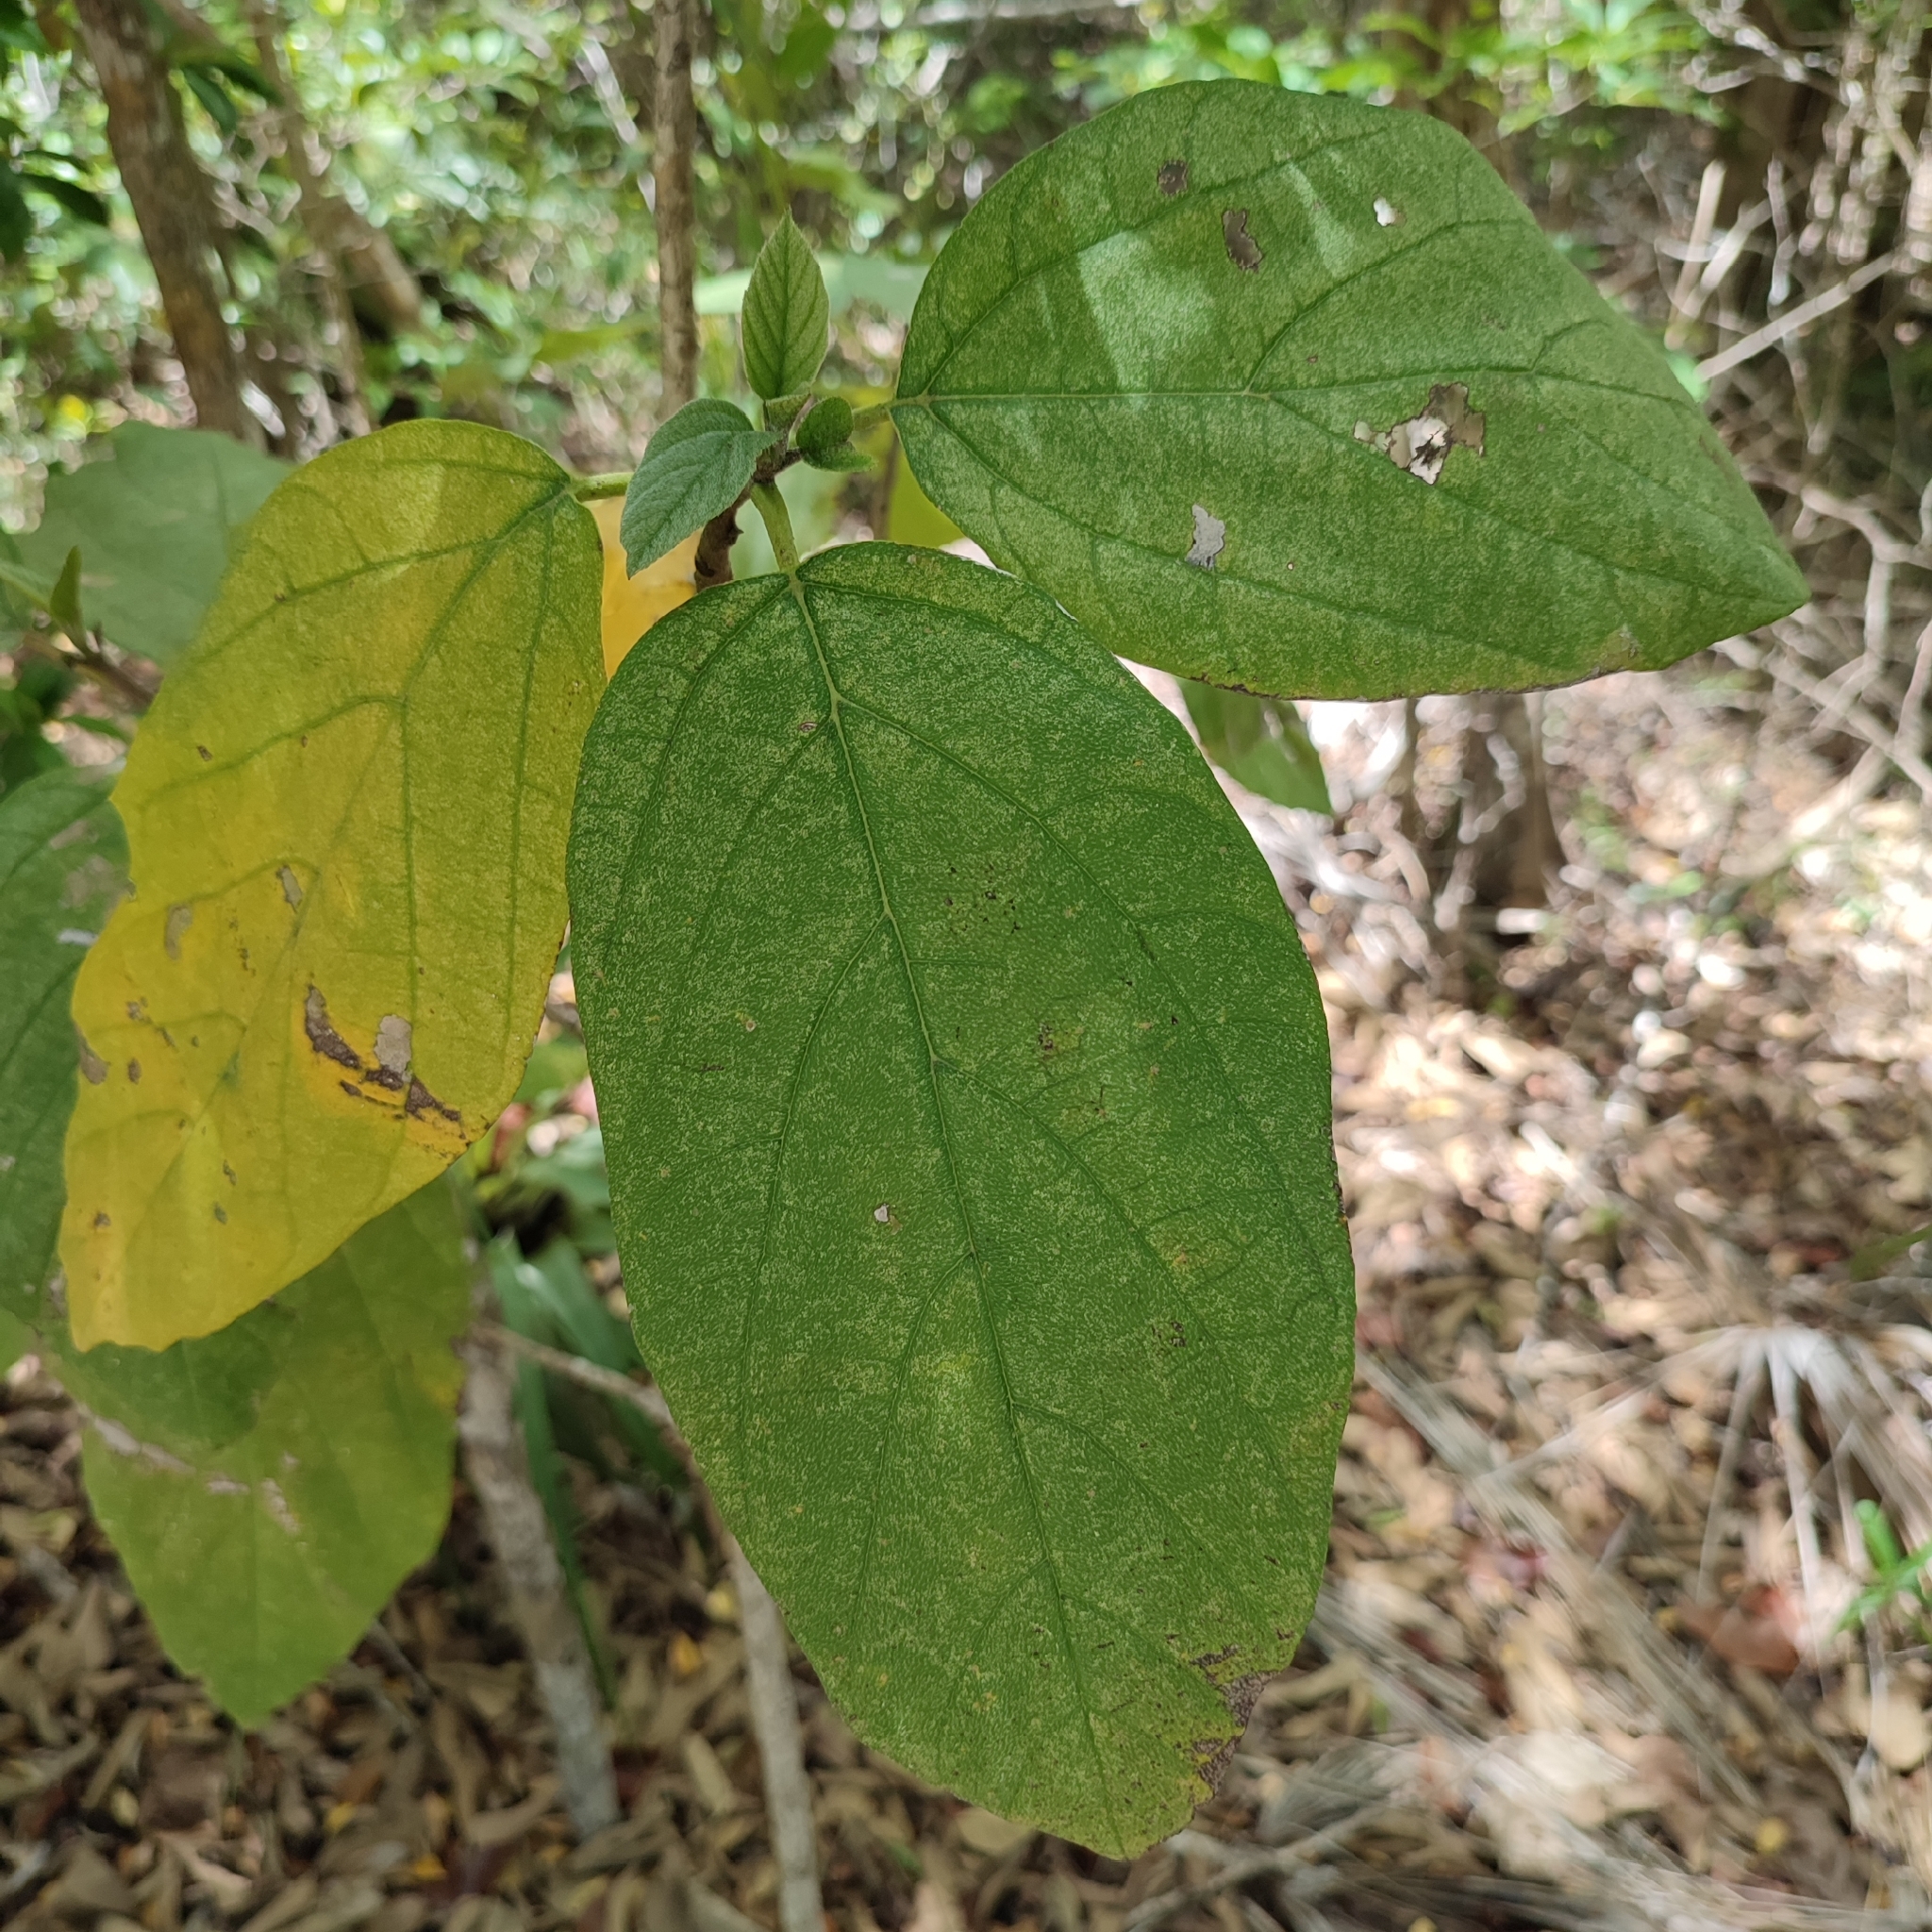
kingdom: Plantae
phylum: Tracheophyta
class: Magnoliopsida
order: Boraginales
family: Cordiaceae
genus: Cordia
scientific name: Cordia sebestena
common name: Largeleaf geigertree
